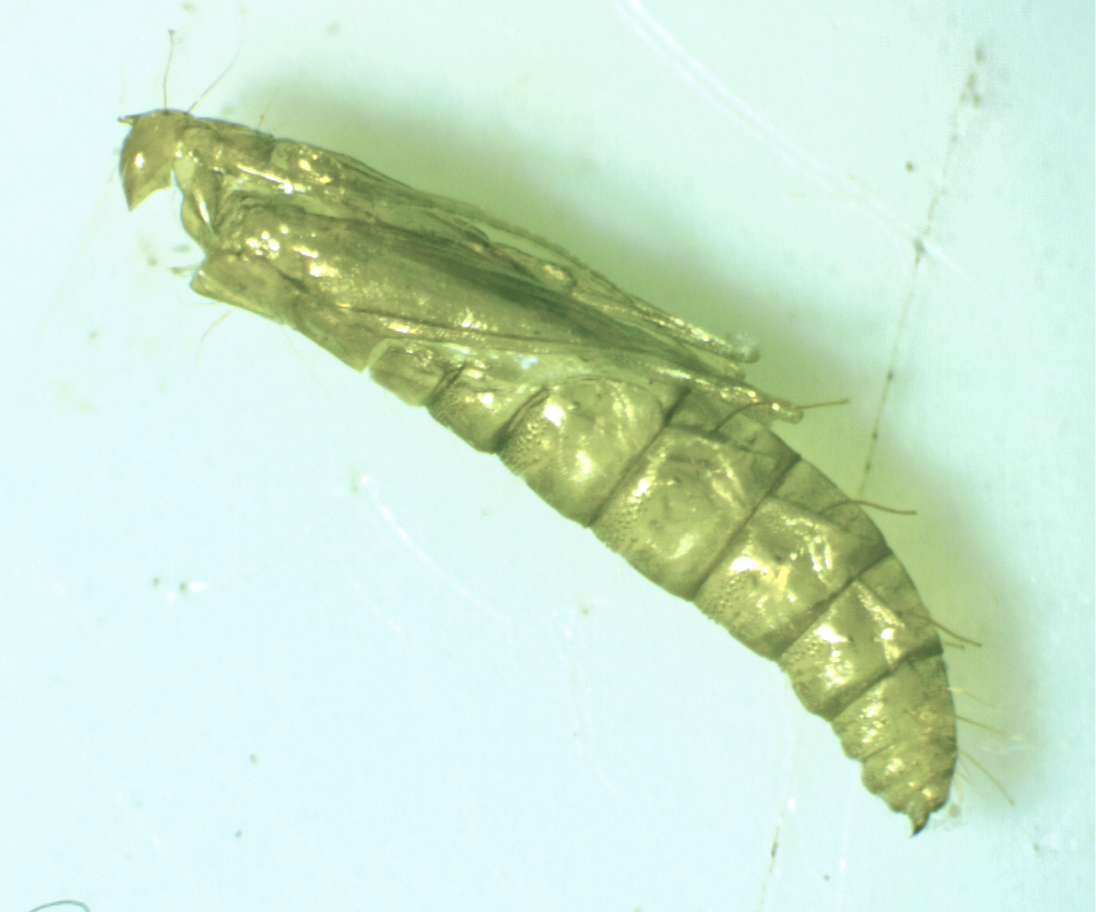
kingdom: Animalia
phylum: Arthropoda
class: Insecta
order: Lepidoptera
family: Tischeriidae
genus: Coptotriche
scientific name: Coptotriche badiiella
